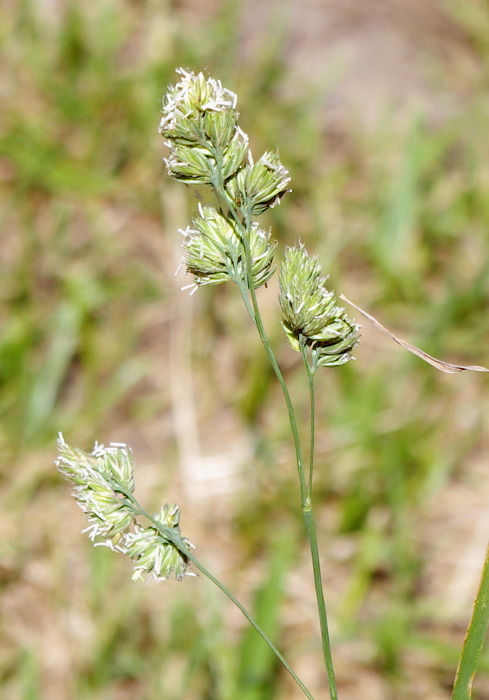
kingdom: Plantae
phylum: Tracheophyta
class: Liliopsida
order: Poales
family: Poaceae
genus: Dactylis
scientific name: Dactylis glomerata
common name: Orchardgrass
